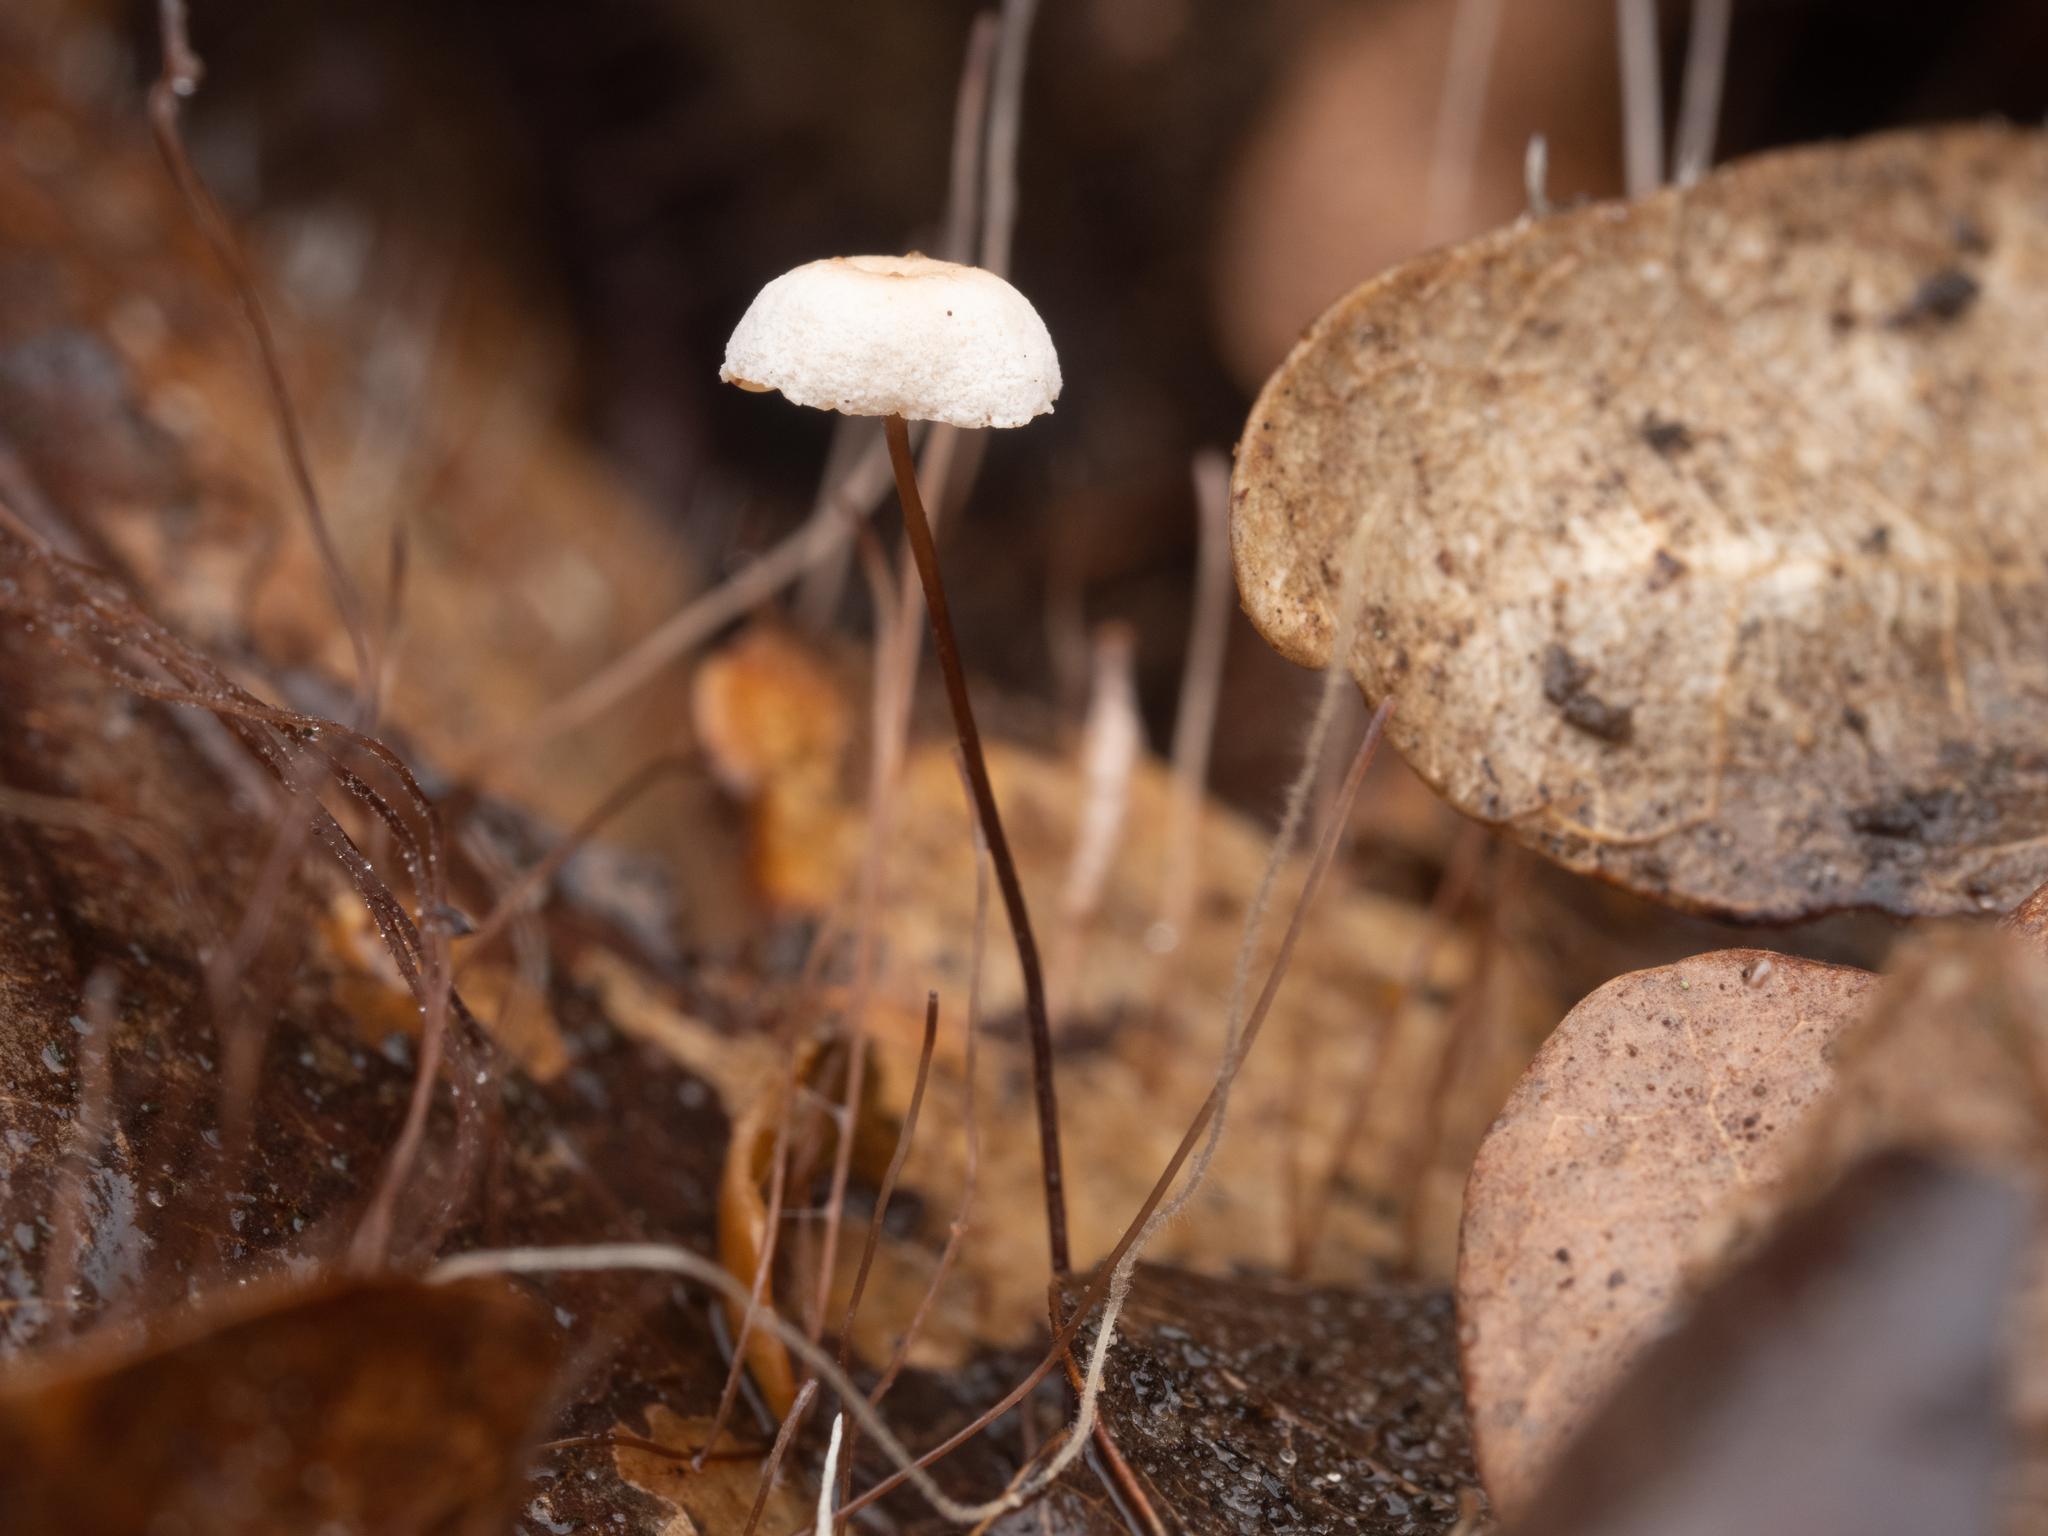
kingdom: Fungi
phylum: Basidiomycota
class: Agaricomycetes
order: Agaricales
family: Marasmiaceae
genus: Marasmius
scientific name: Marasmius rotula
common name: Collared parachute
